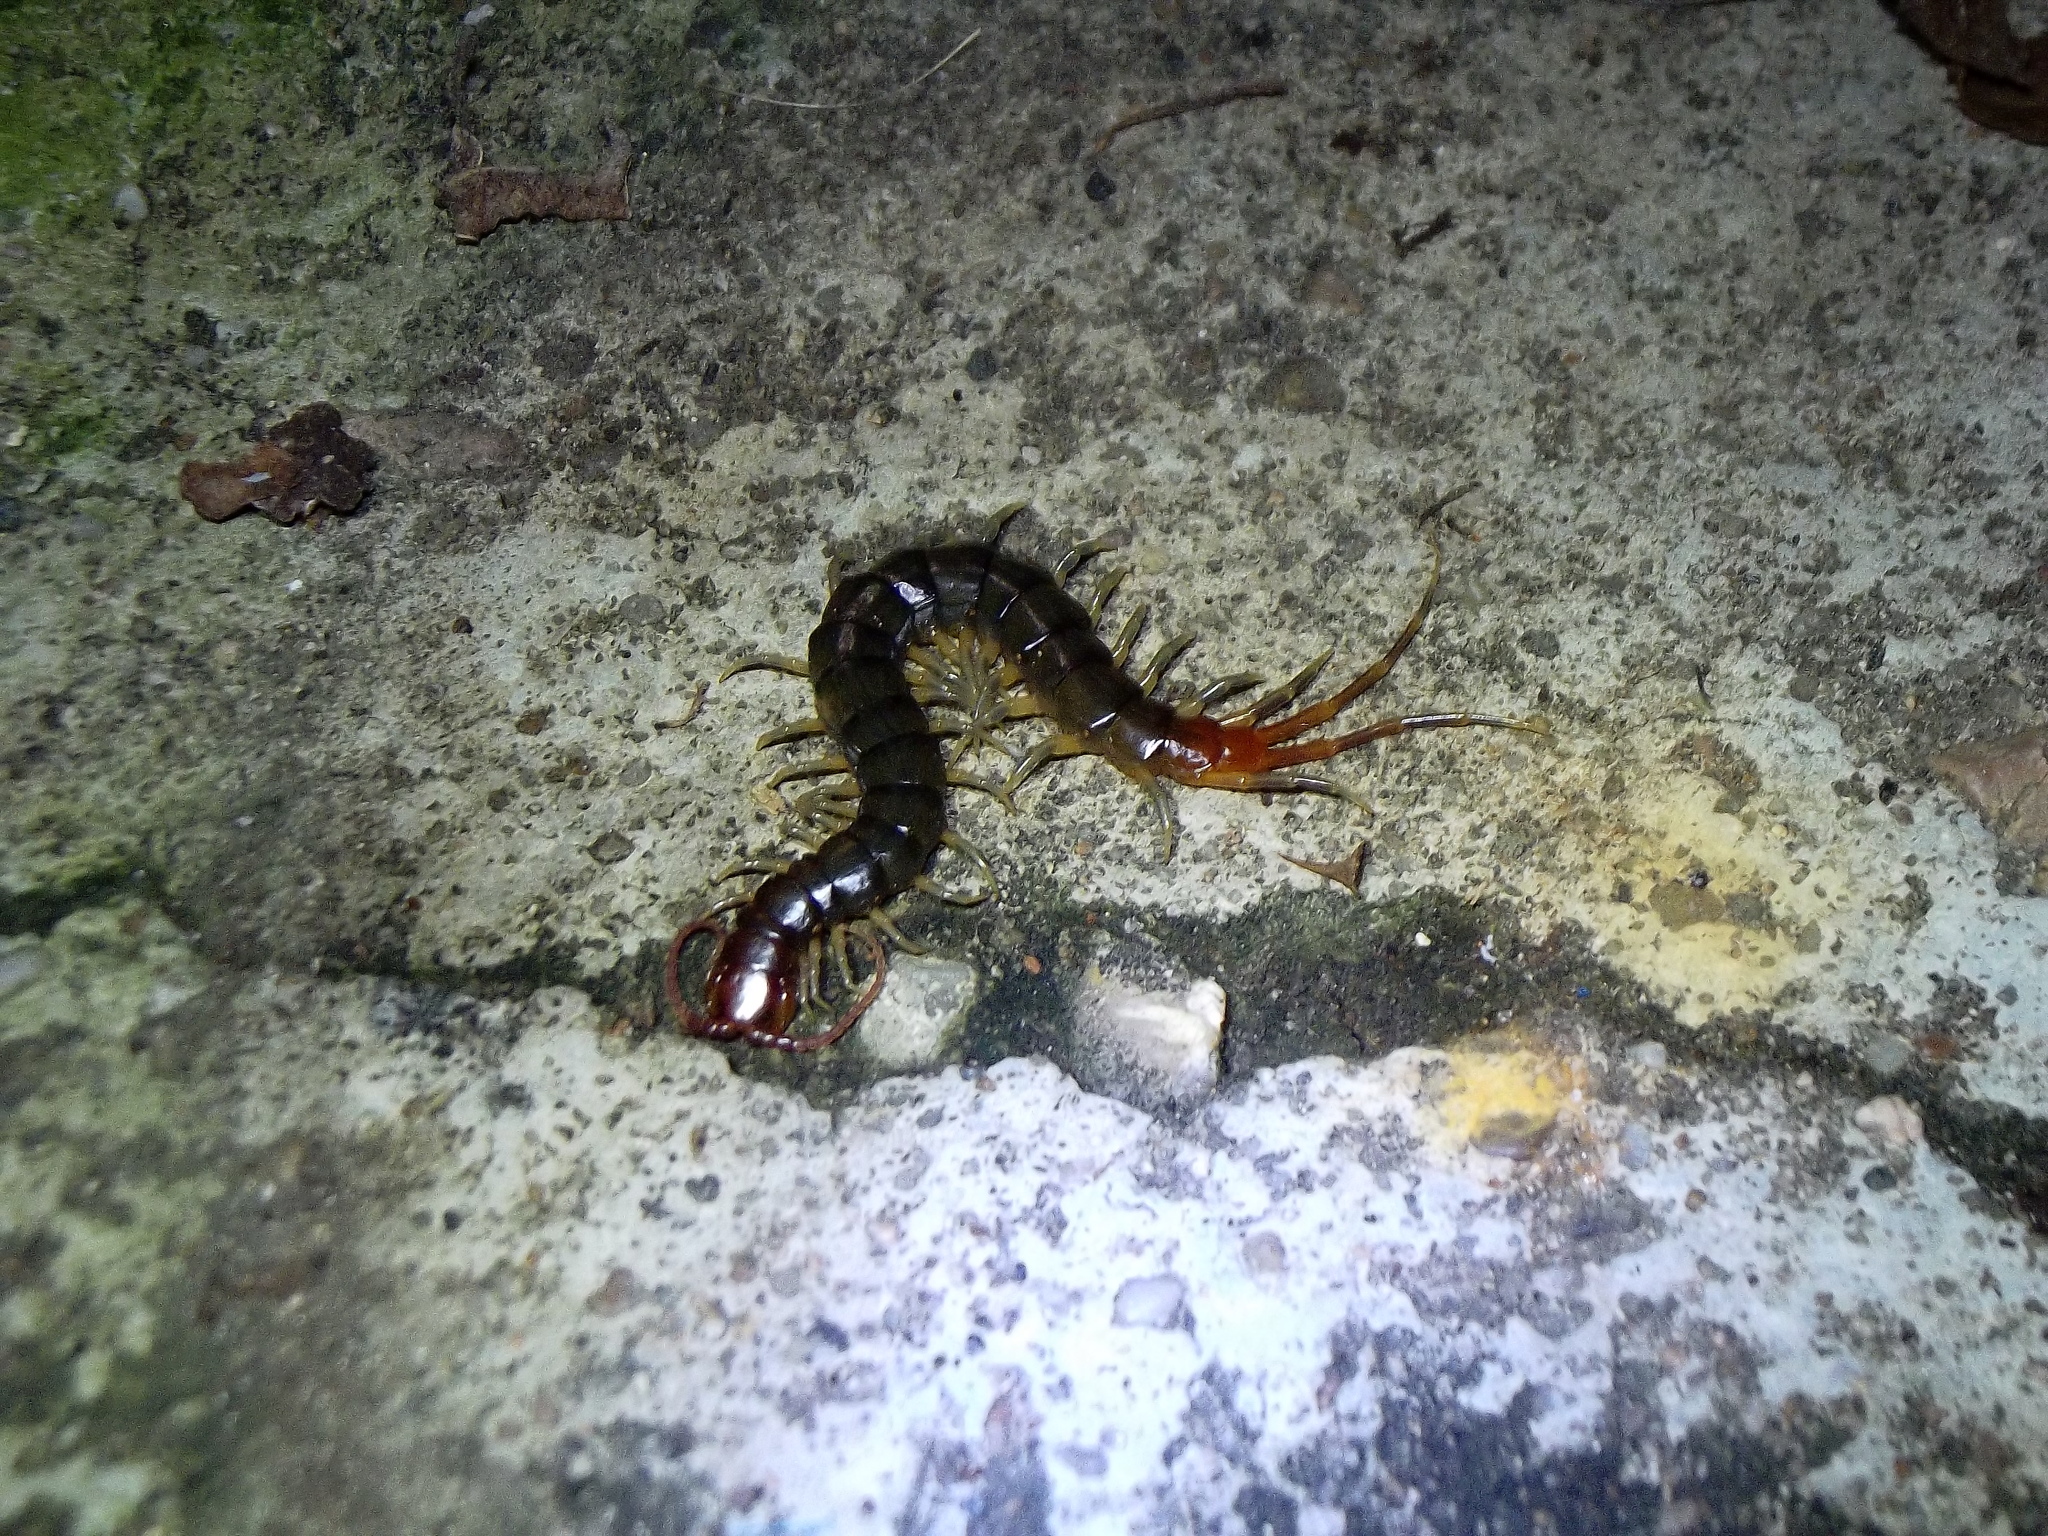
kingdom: Animalia
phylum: Arthropoda
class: Chilopoda
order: Scolopendromorpha
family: Scolopendridae
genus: Rhysida
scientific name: Rhysida longipes
